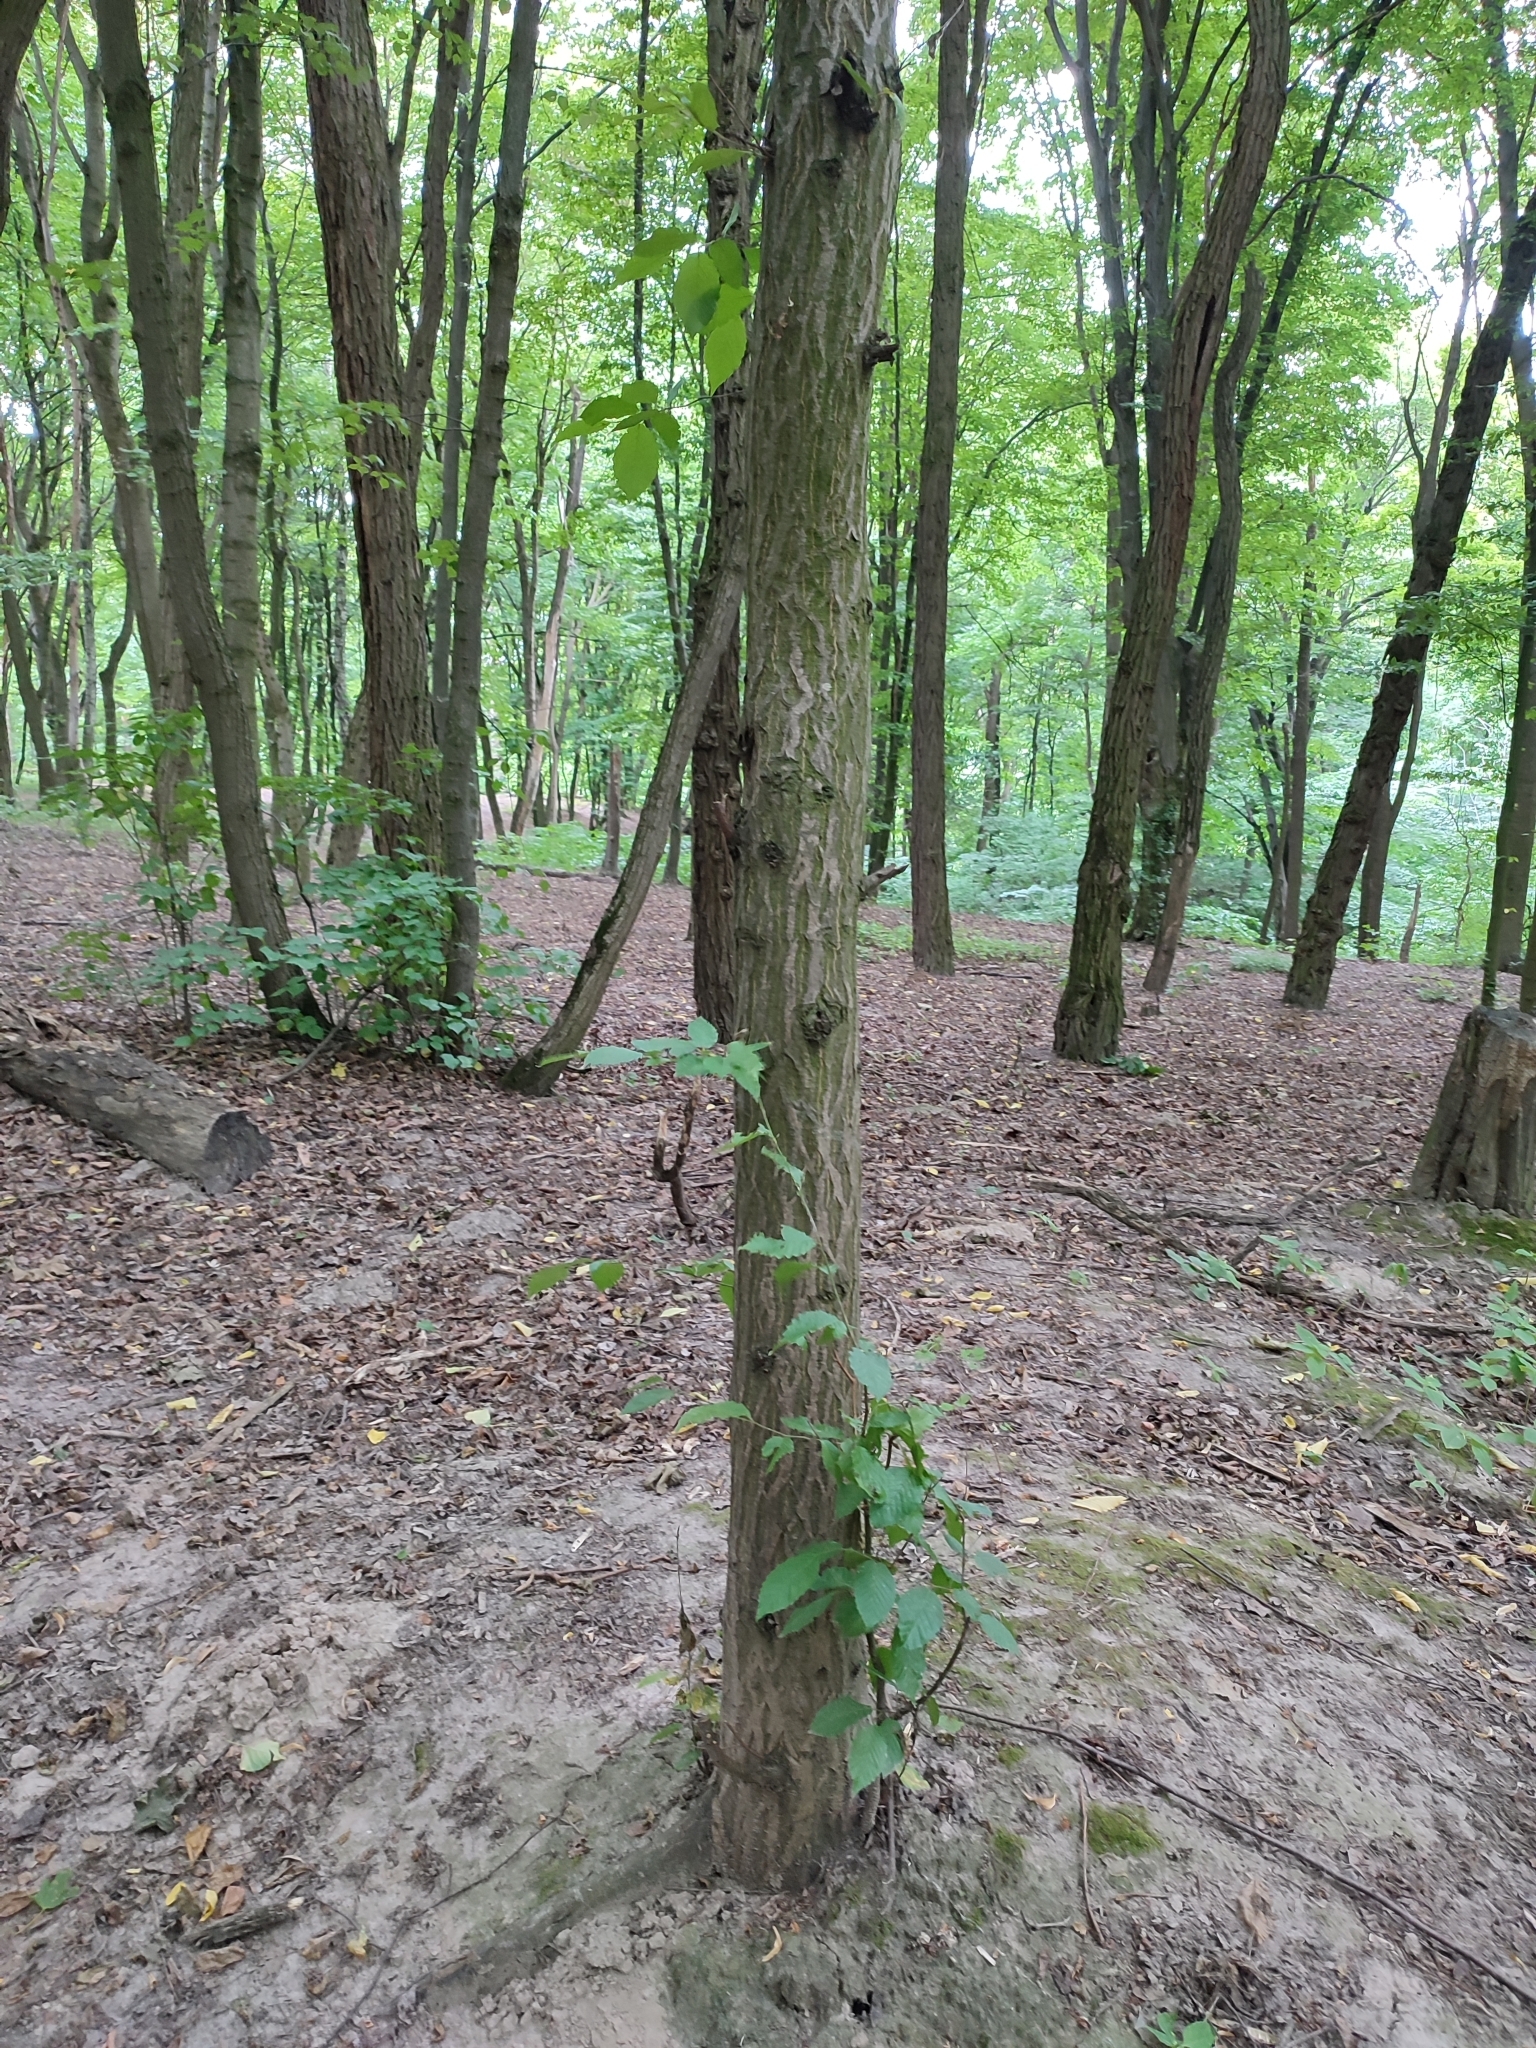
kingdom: Plantae
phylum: Tracheophyta
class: Magnoliopsida
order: Fagales
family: Betulaceae
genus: Carpinus
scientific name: Carpinus betulus
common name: Hornbeam
